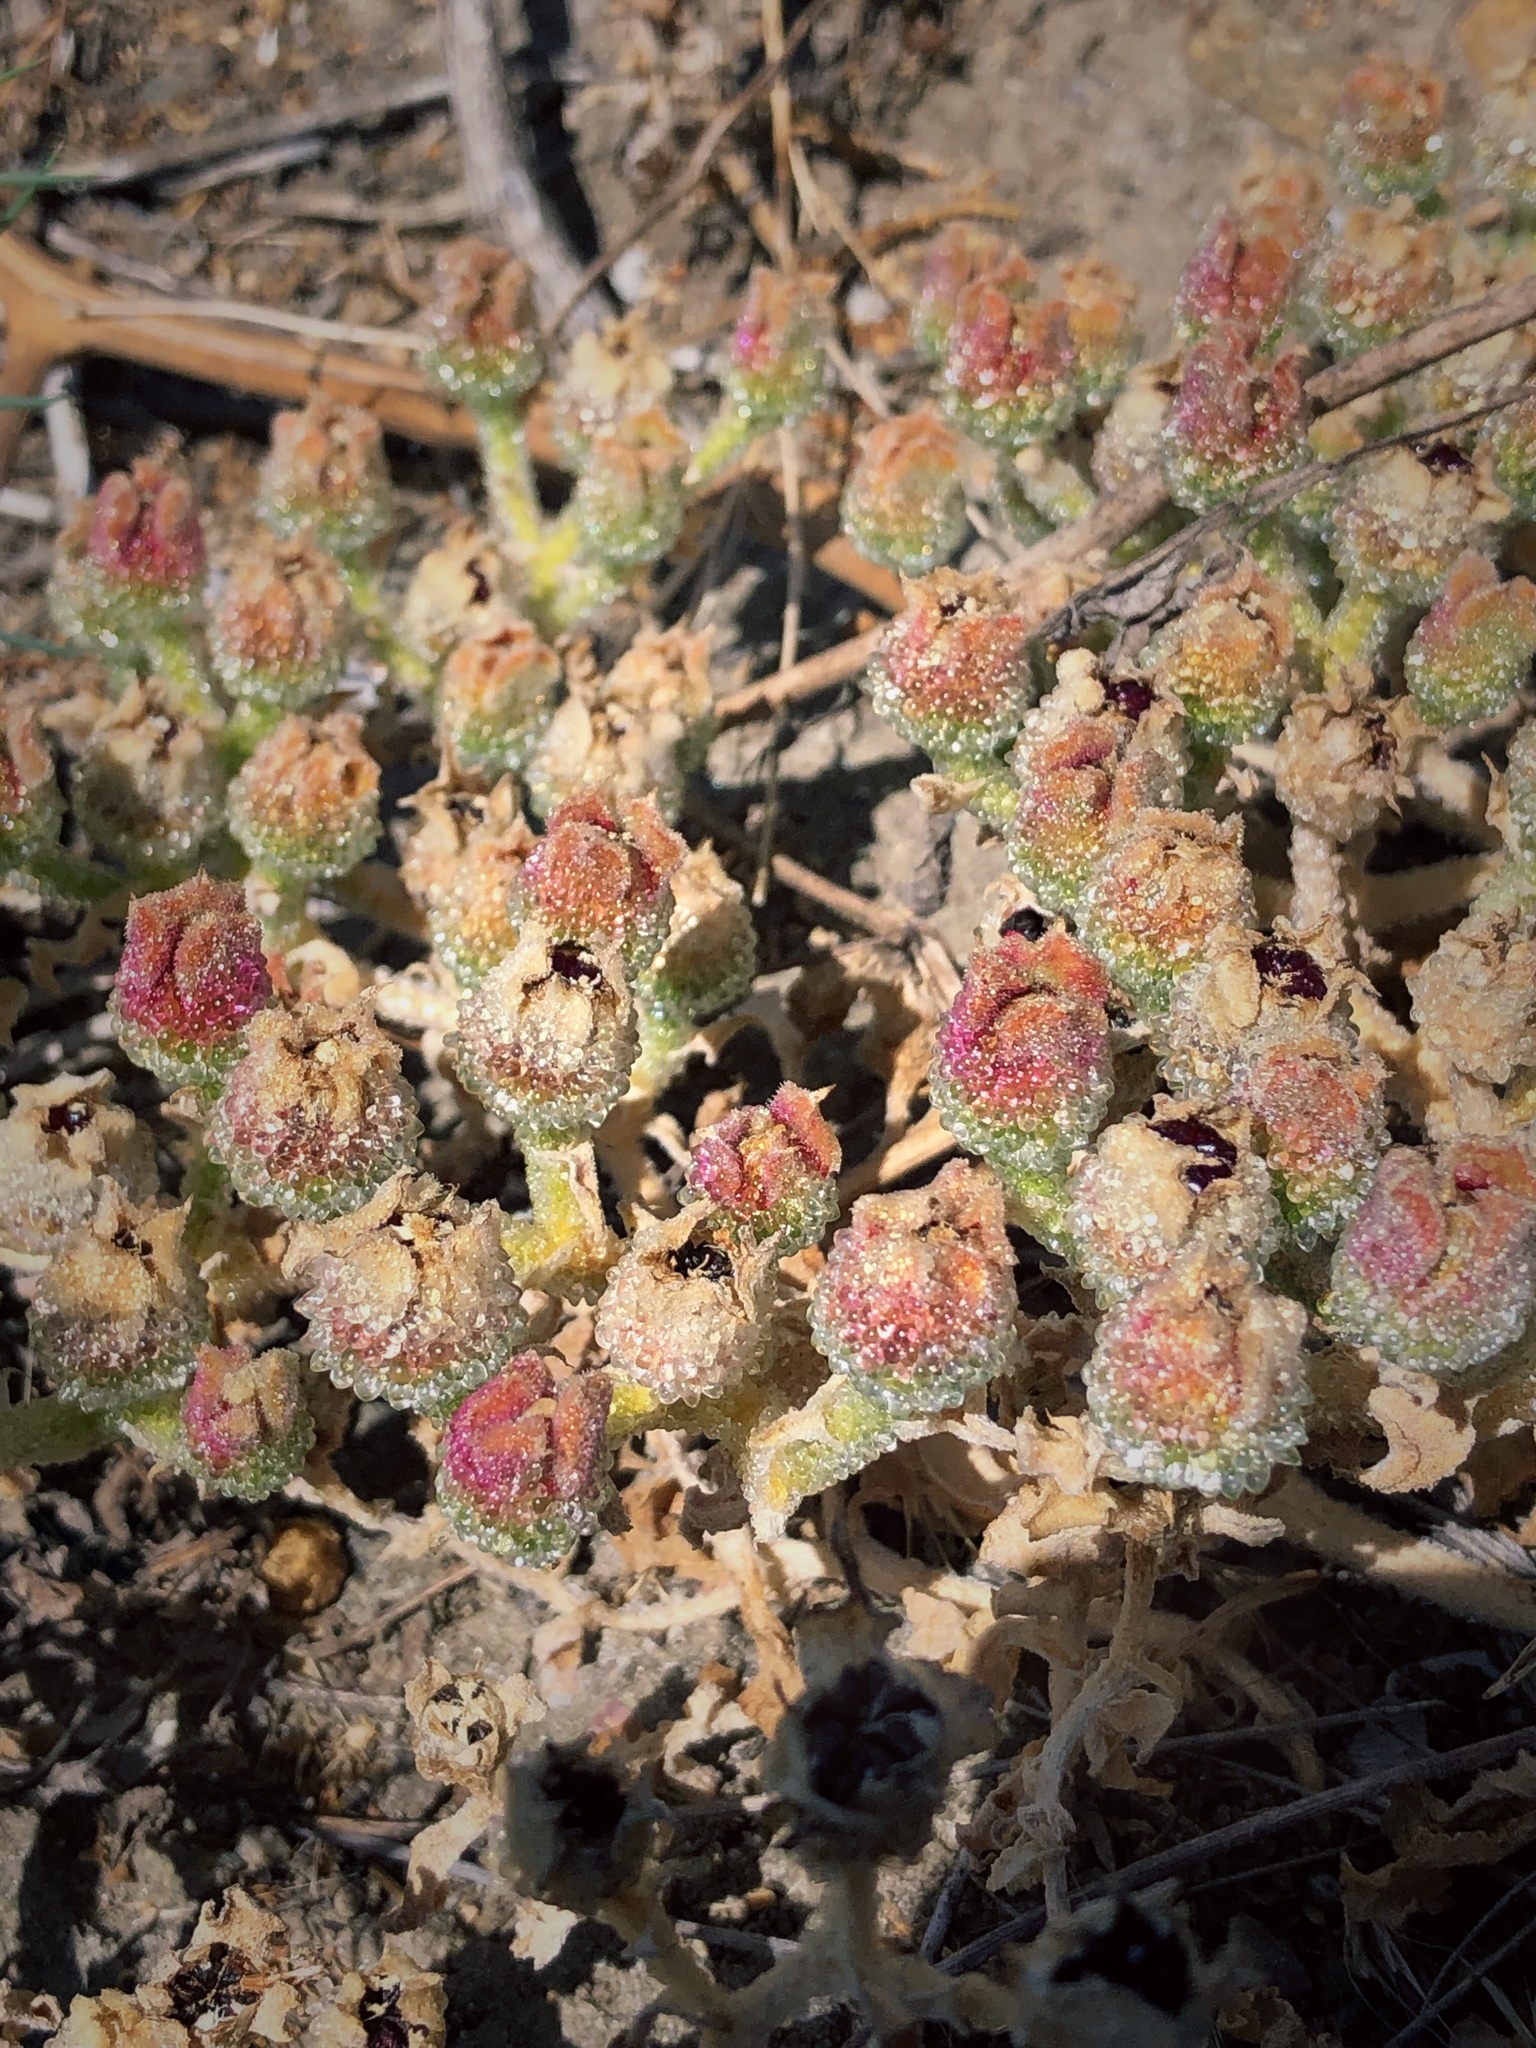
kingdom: Plantae
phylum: Tracheophyta
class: Magnoliopsida
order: Caryophyllales
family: Aizoaceae
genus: Mesembryanthemum
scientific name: Mesembryanthemum crystallinum
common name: Common iceplant
